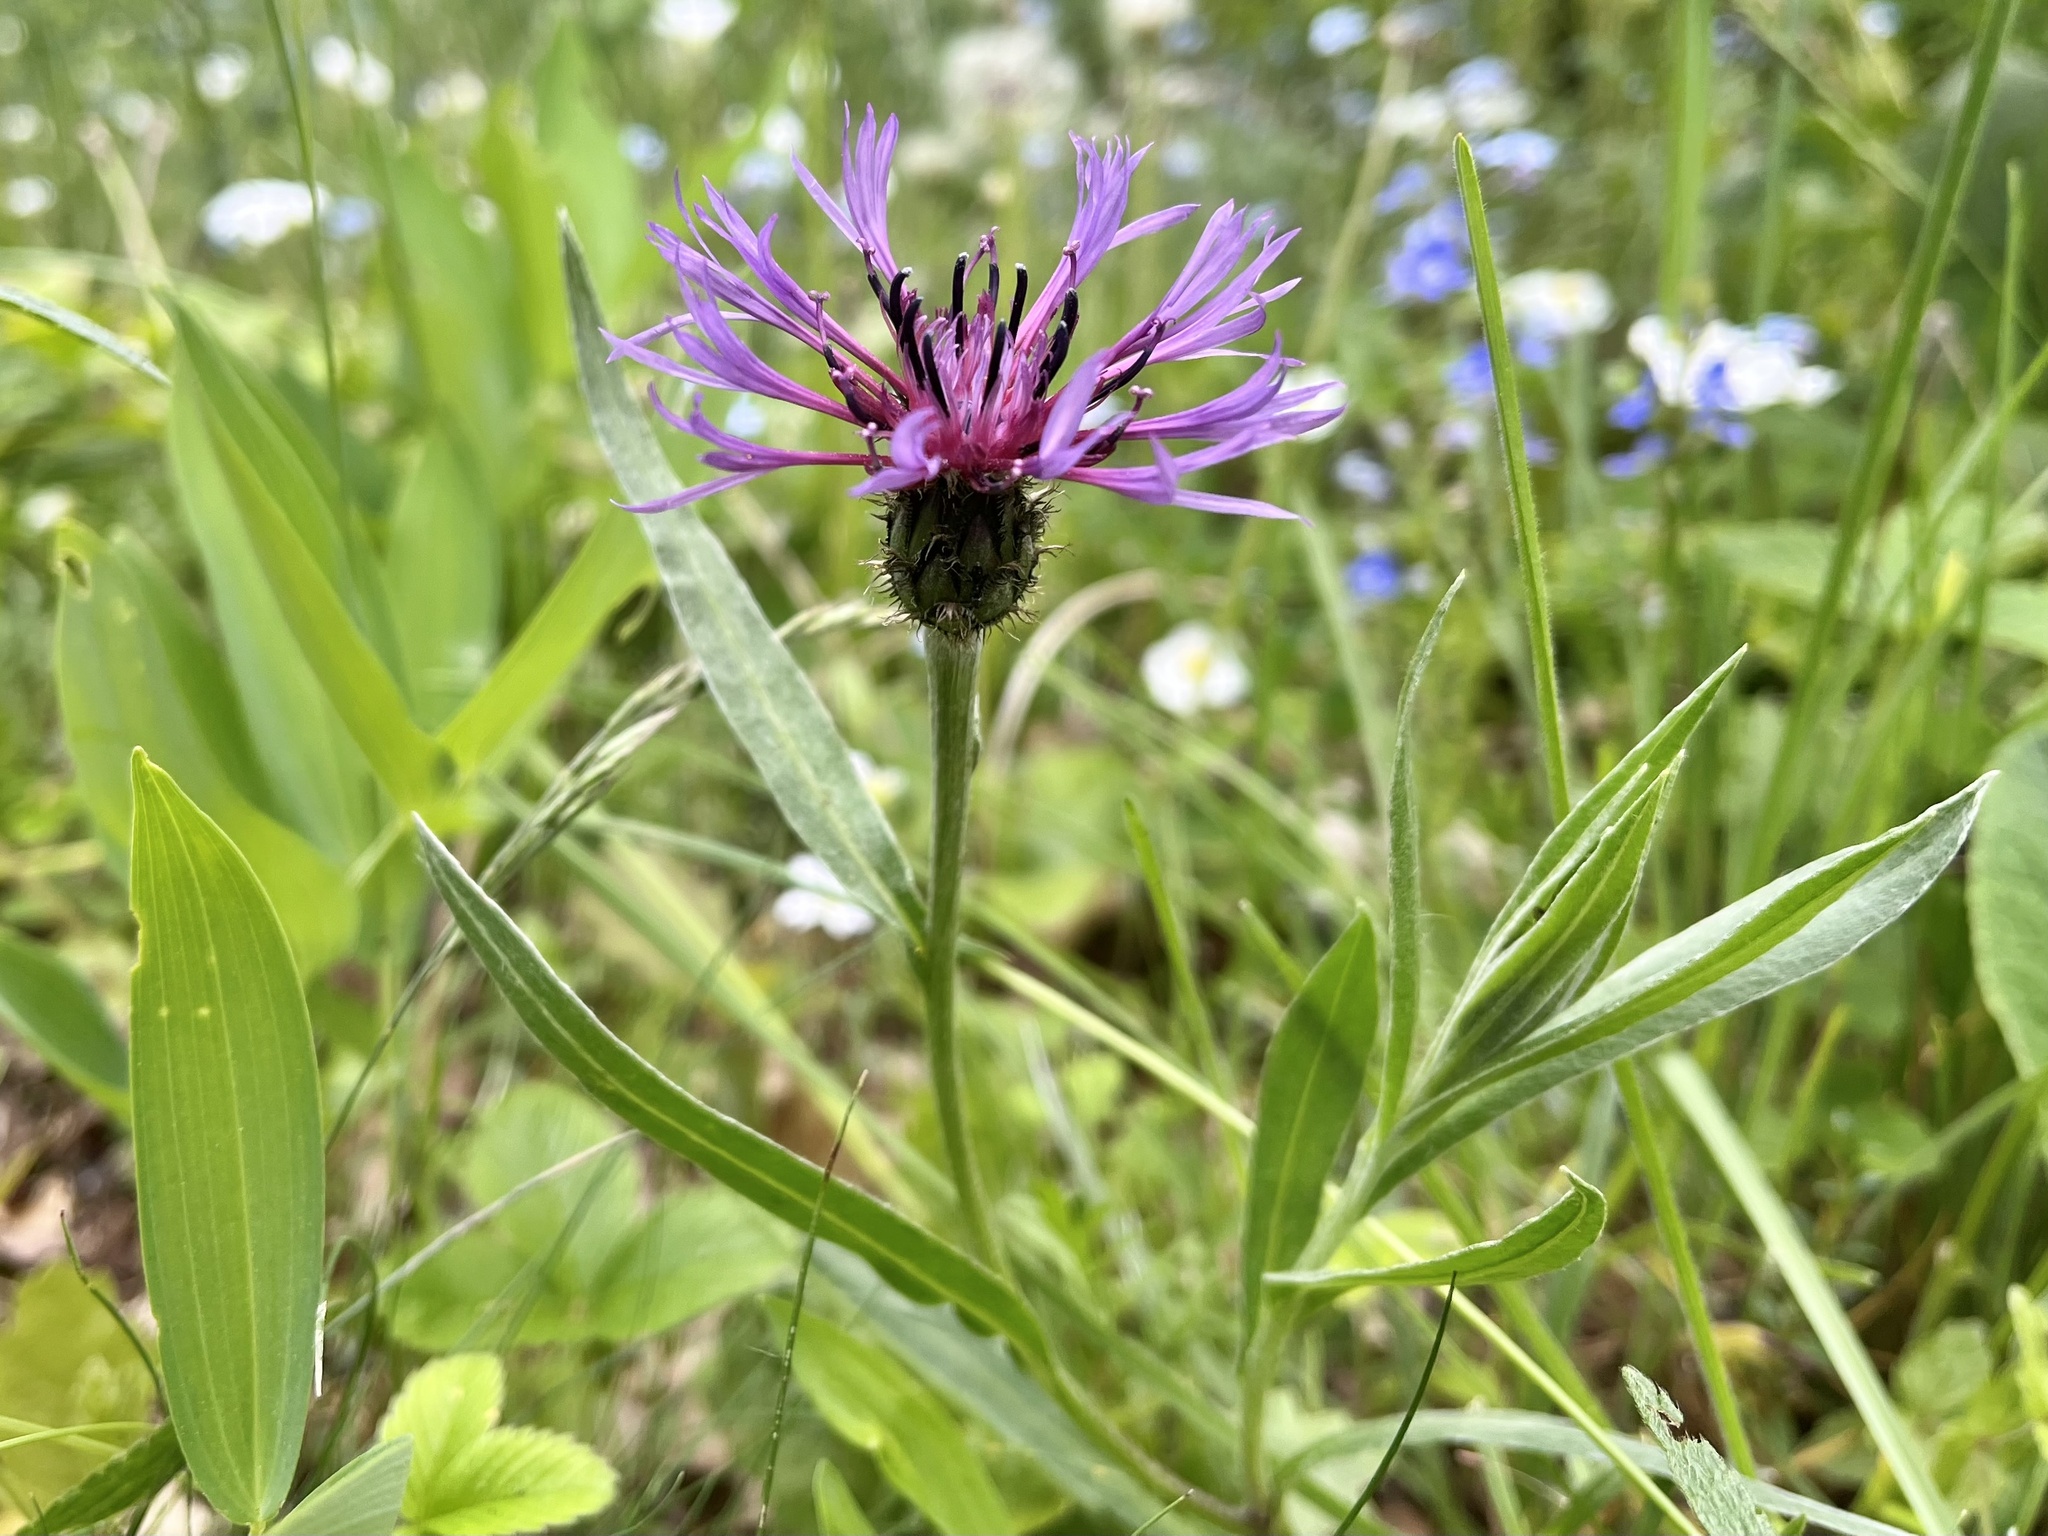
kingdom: Plantae
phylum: Tracheophyta
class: Magnoliopsida
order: Asterales
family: Asteraceae
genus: Centaurea
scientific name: Centaurea triumfettii
